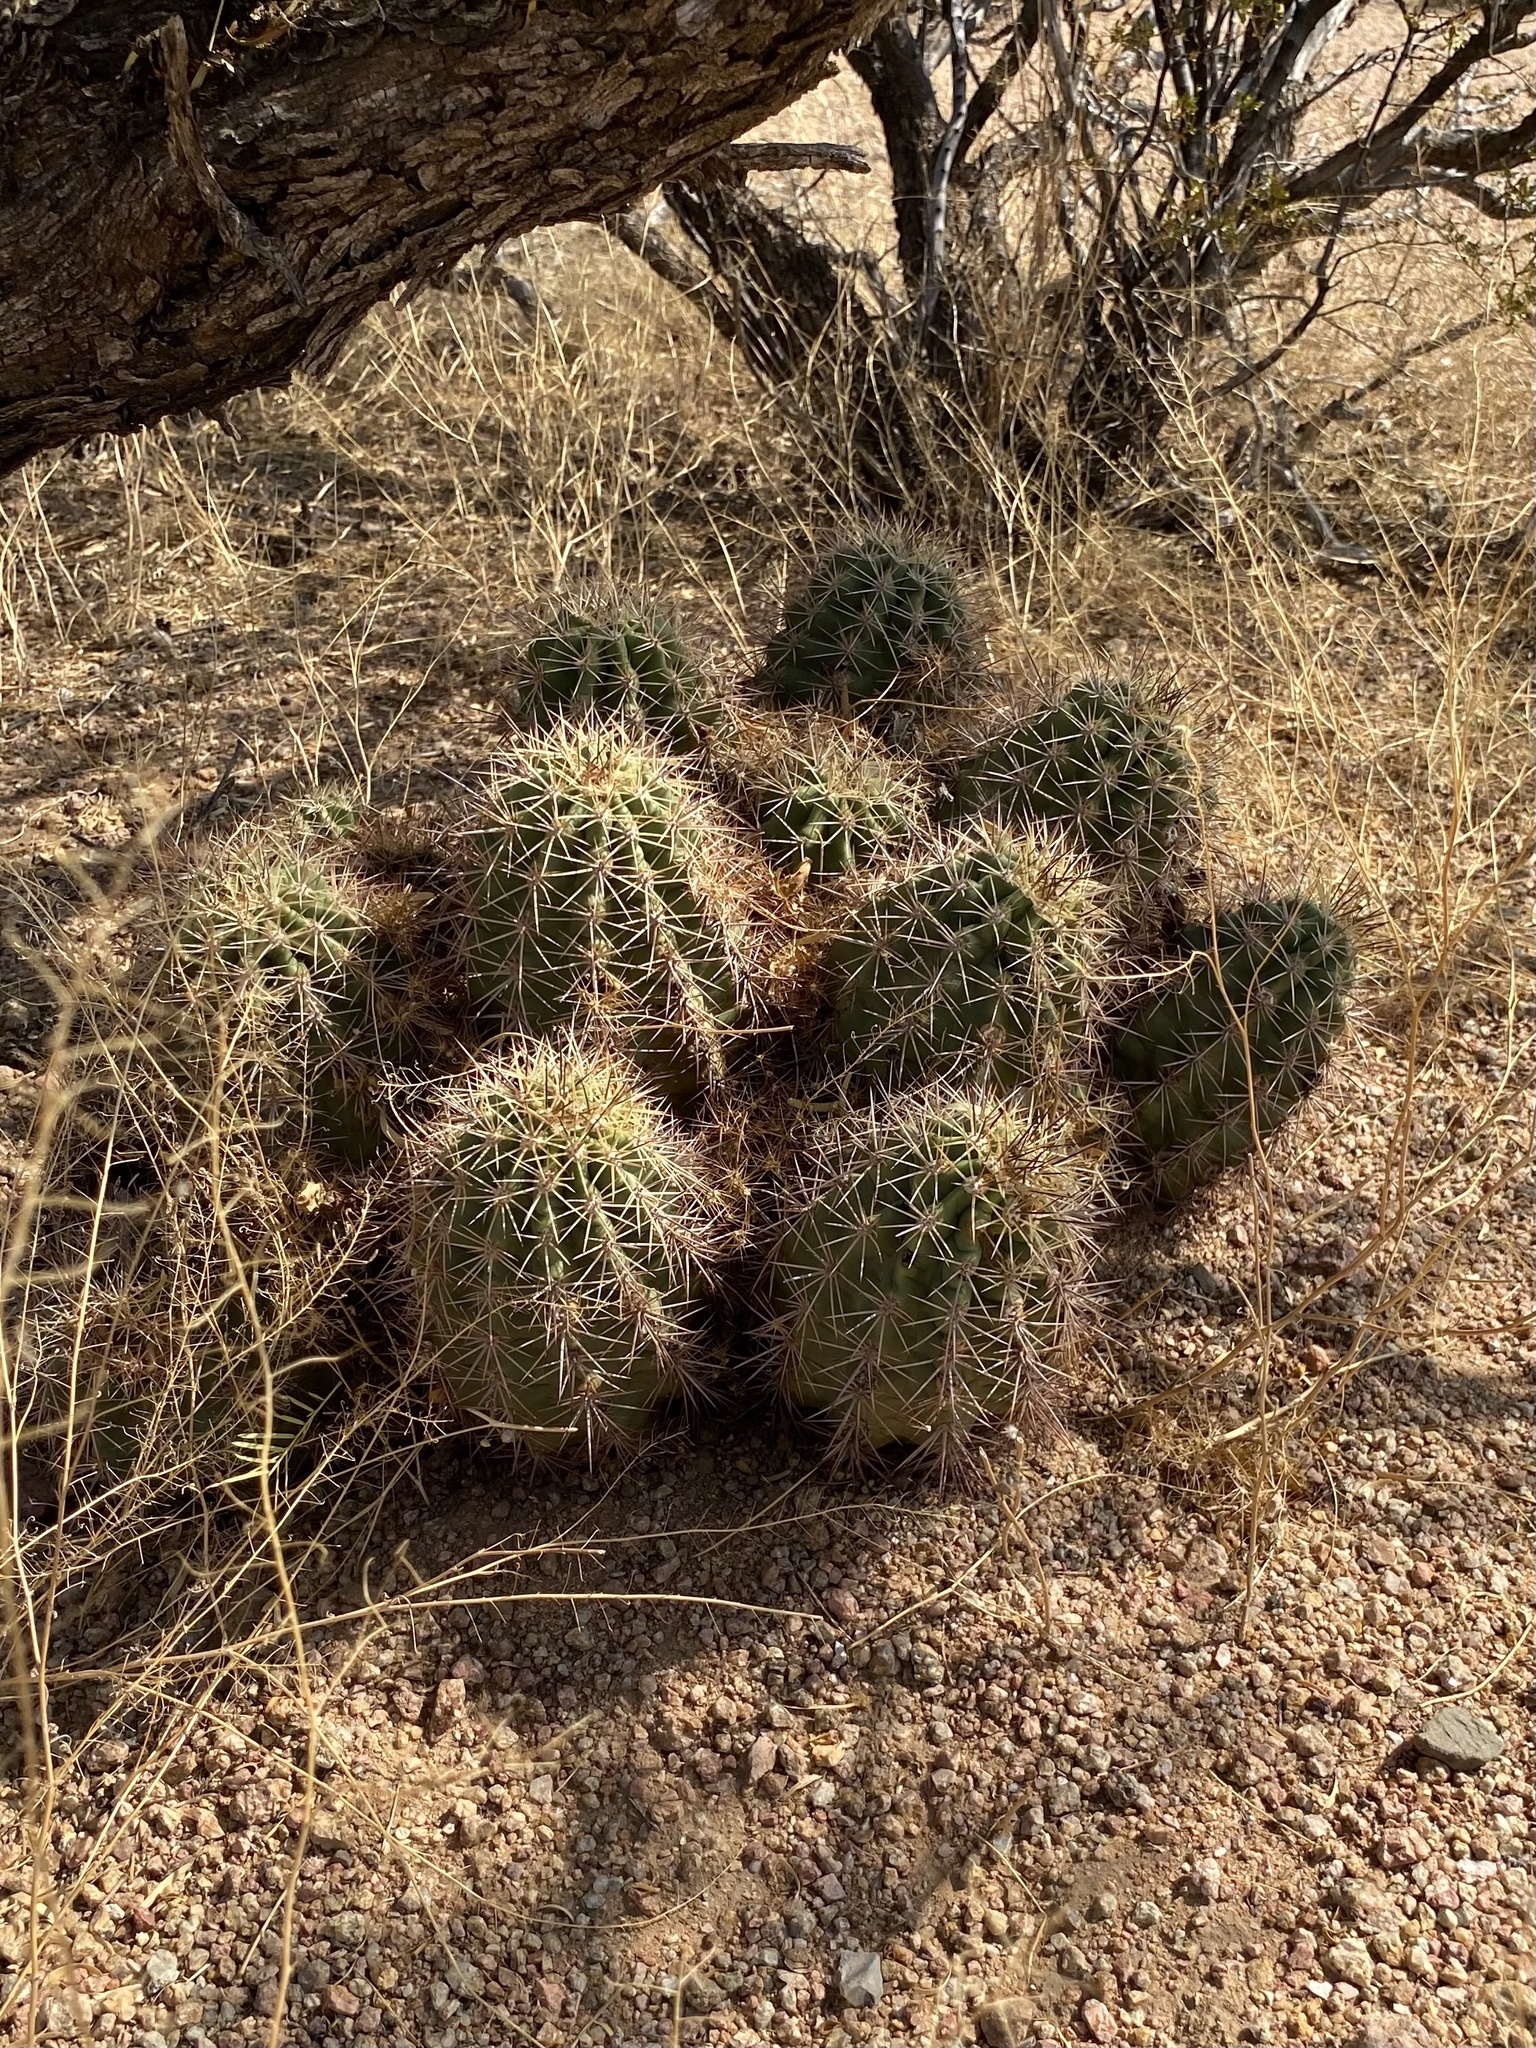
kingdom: Plantae
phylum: Tracheophyta
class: Magnoliopsida
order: Caryophyllales
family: Cactaceae
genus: Echinocereus
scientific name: Echinocereus coccineus
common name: Scarlet hedgehog cactus
